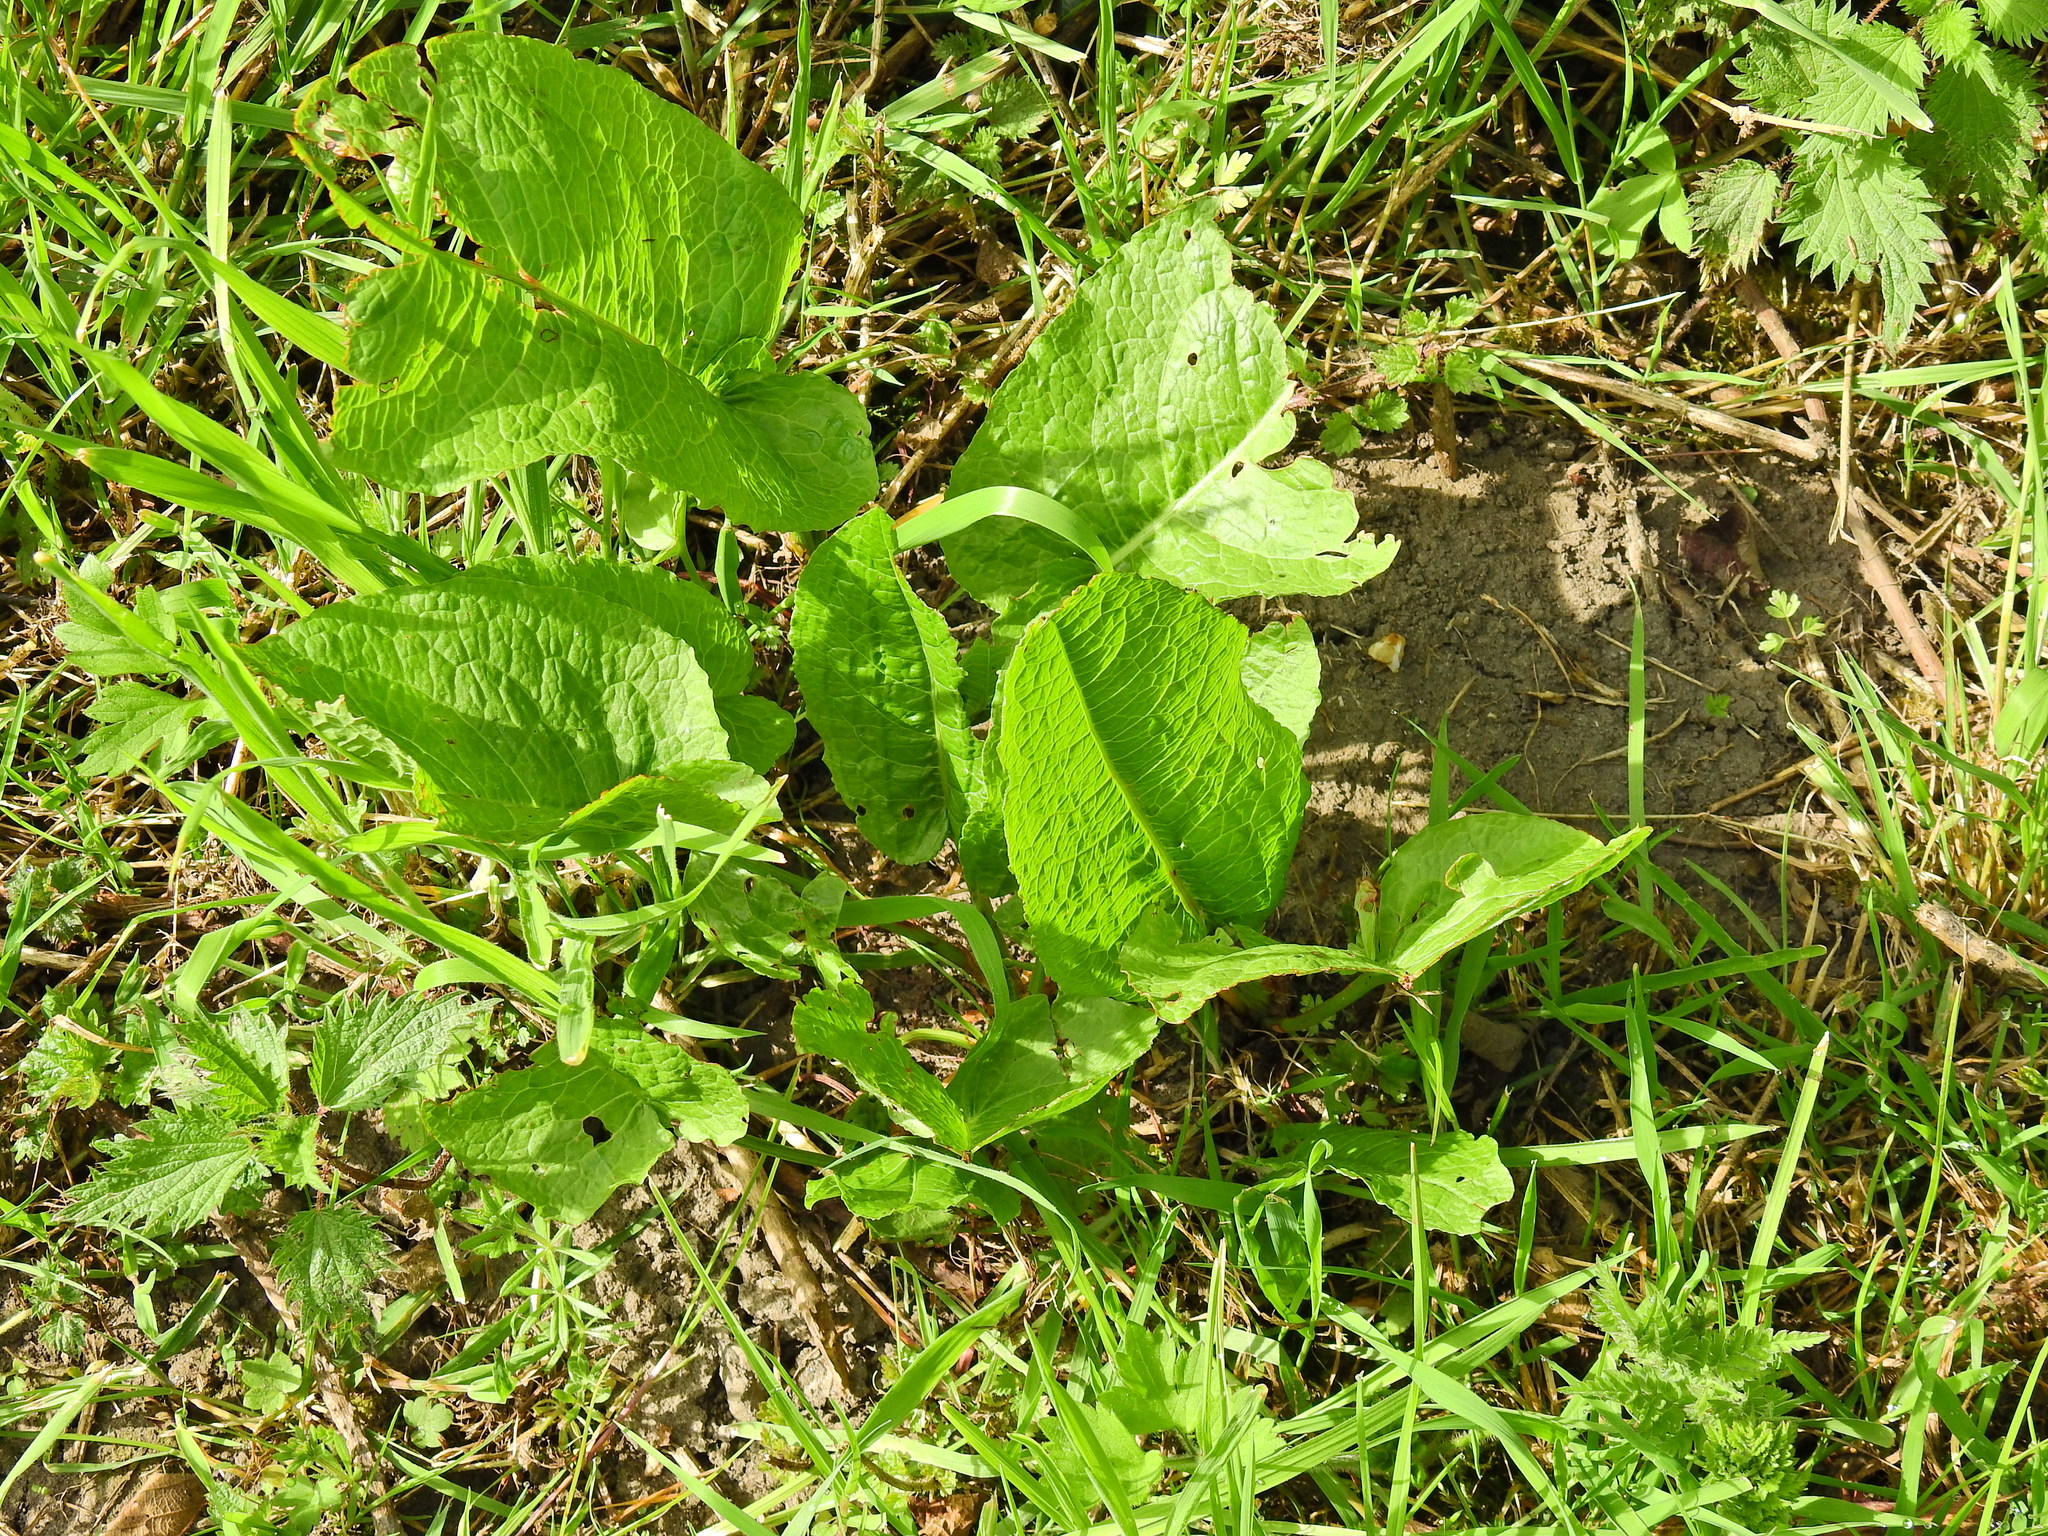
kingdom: Plantae
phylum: Tracheophyta
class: Magnoliopsida
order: Caryophyllales
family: Polygonaceae
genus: Rumex
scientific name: Rumex obtusifolius
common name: Bitter dock
